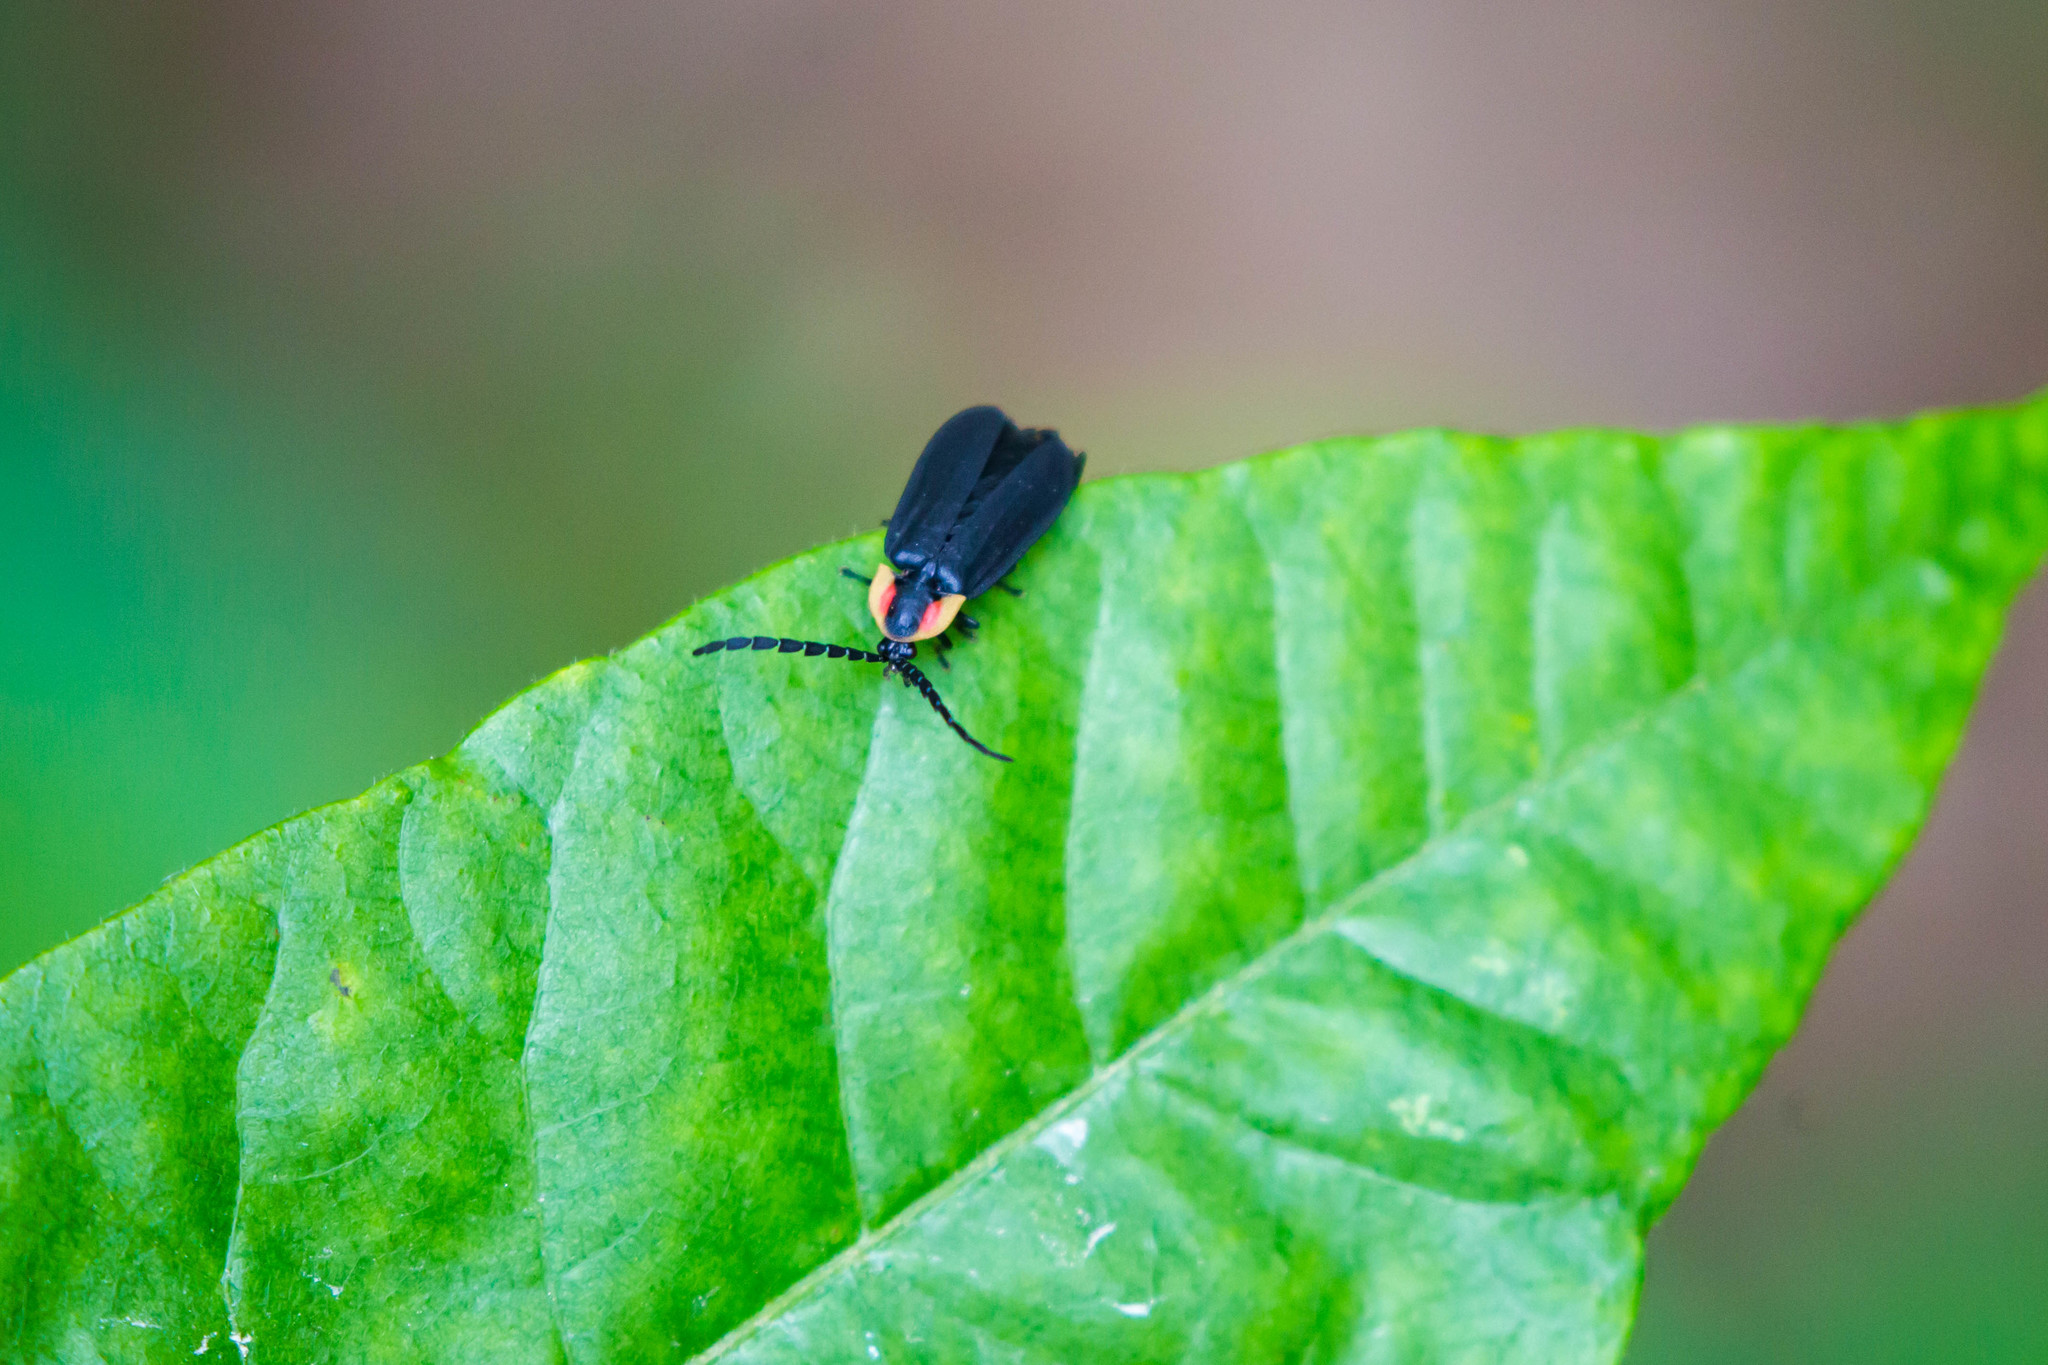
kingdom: Animalia
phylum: Arthropoda
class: Insecta
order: Coleoptera
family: Lampyridae
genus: Lucidota
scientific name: Lucidota atra
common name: Black firefly
